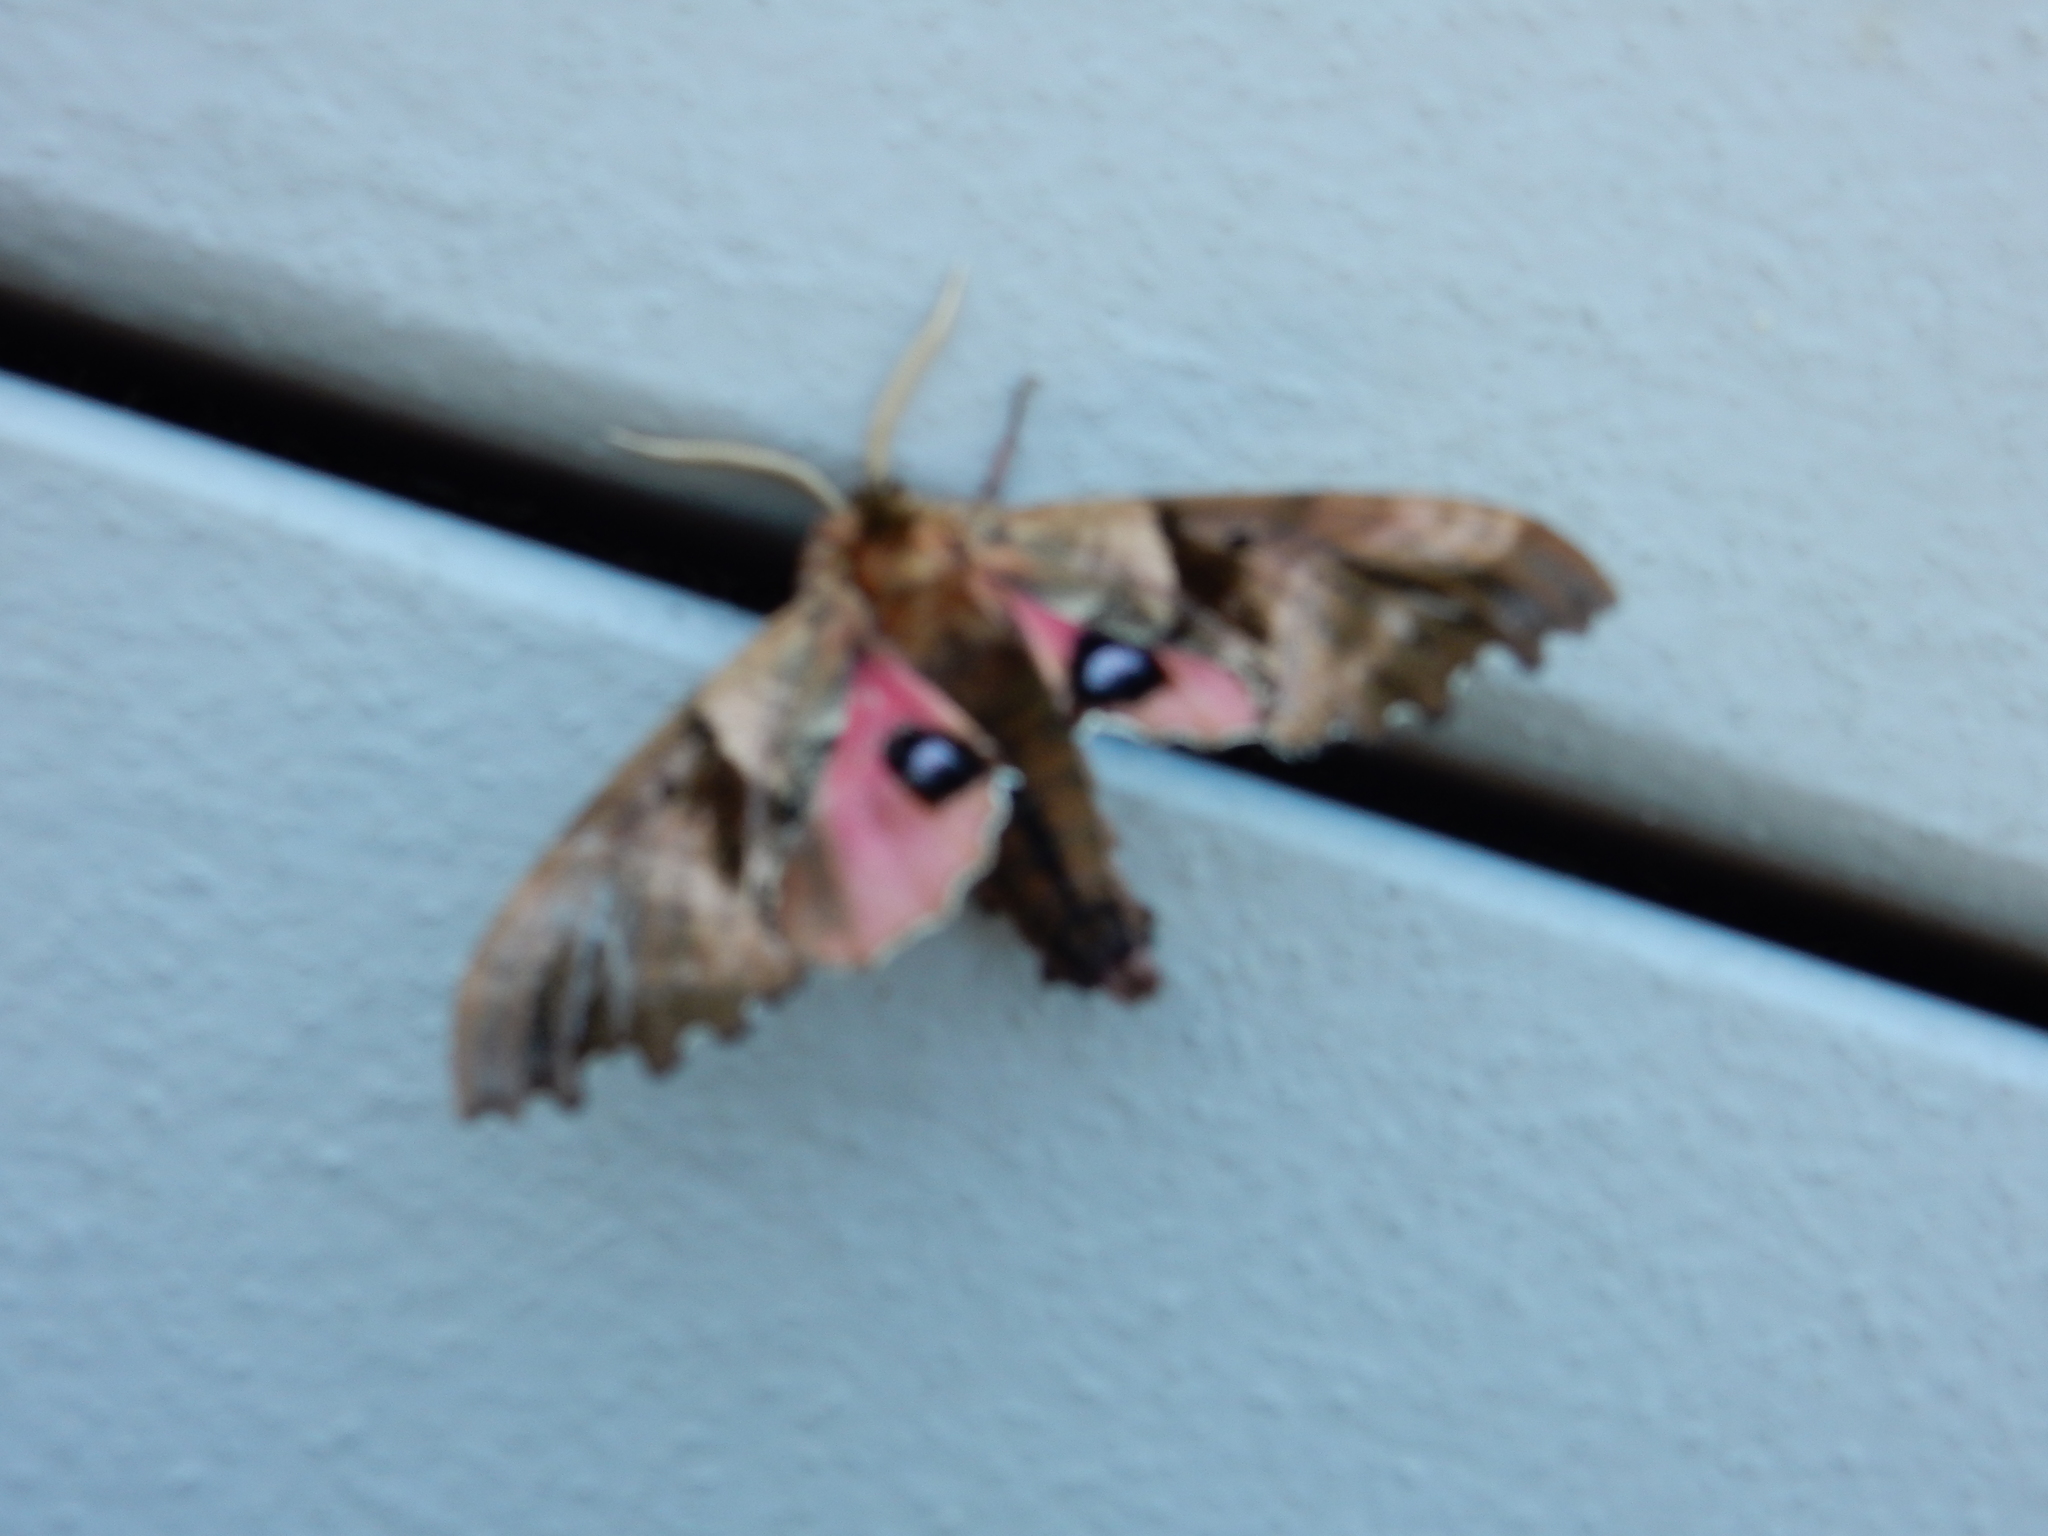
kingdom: Animalia
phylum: Arthropoda
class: Insecta
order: Lepidoptera
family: Sphingidae
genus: Paonias
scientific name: Paonias excaecata
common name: Blind-eyed sphinx
